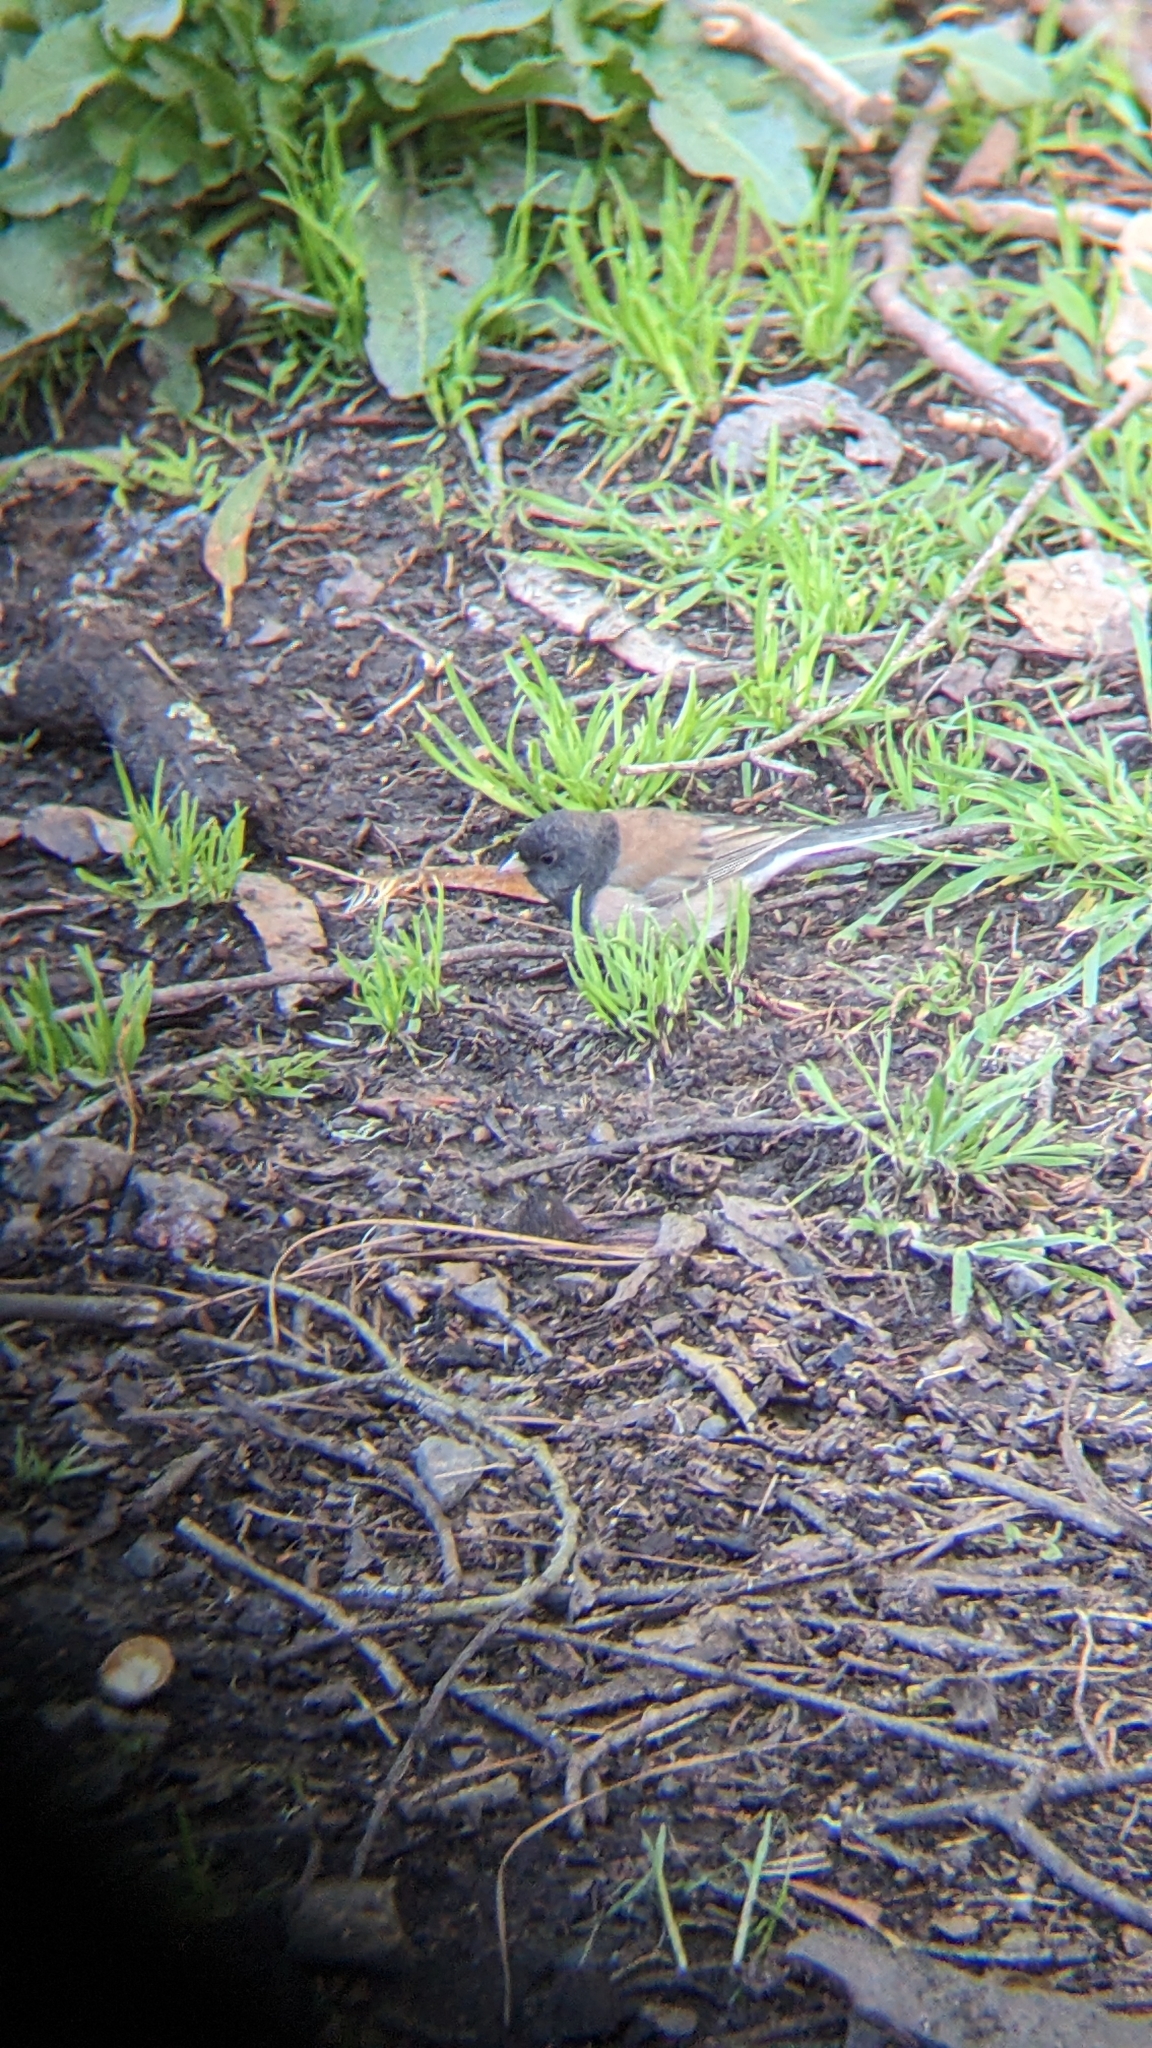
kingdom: Animalia
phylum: Chordata
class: Aves
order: Passeriformes
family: Passerellidae
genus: Junco
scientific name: Junco hyemalis
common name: Dark-eyed junco
